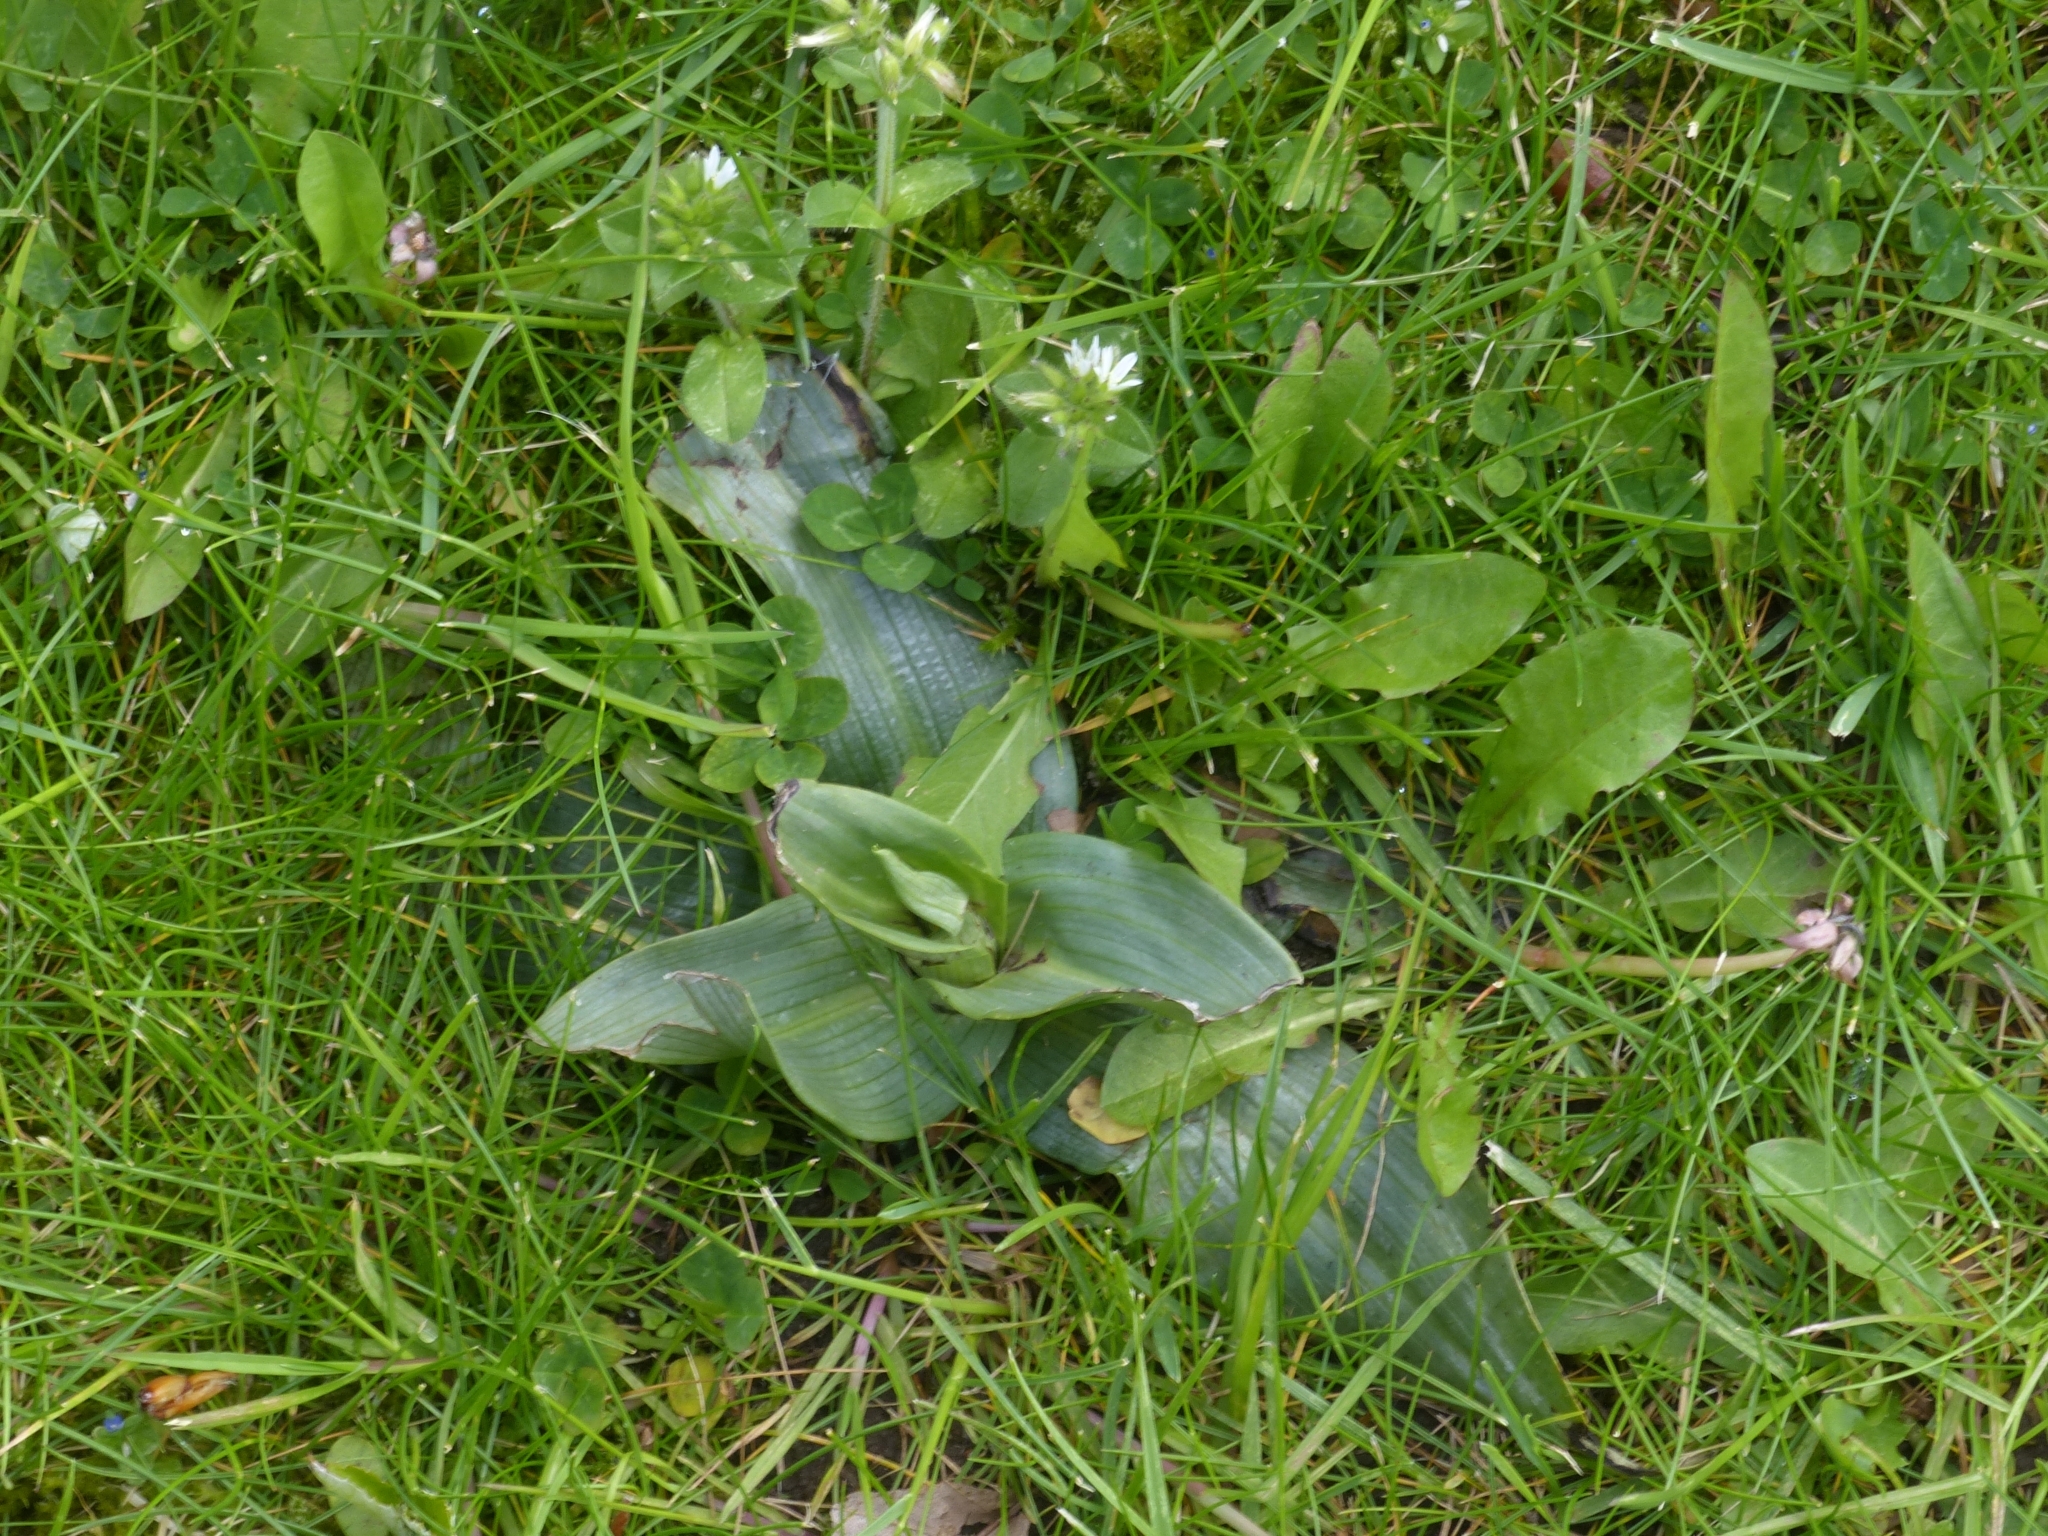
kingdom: Plantae
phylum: Tracheophyta
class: Liliopsida
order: Asparagales
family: Orchidaceae
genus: Ophrys
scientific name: Ophrys apifera
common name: Bee orchid
